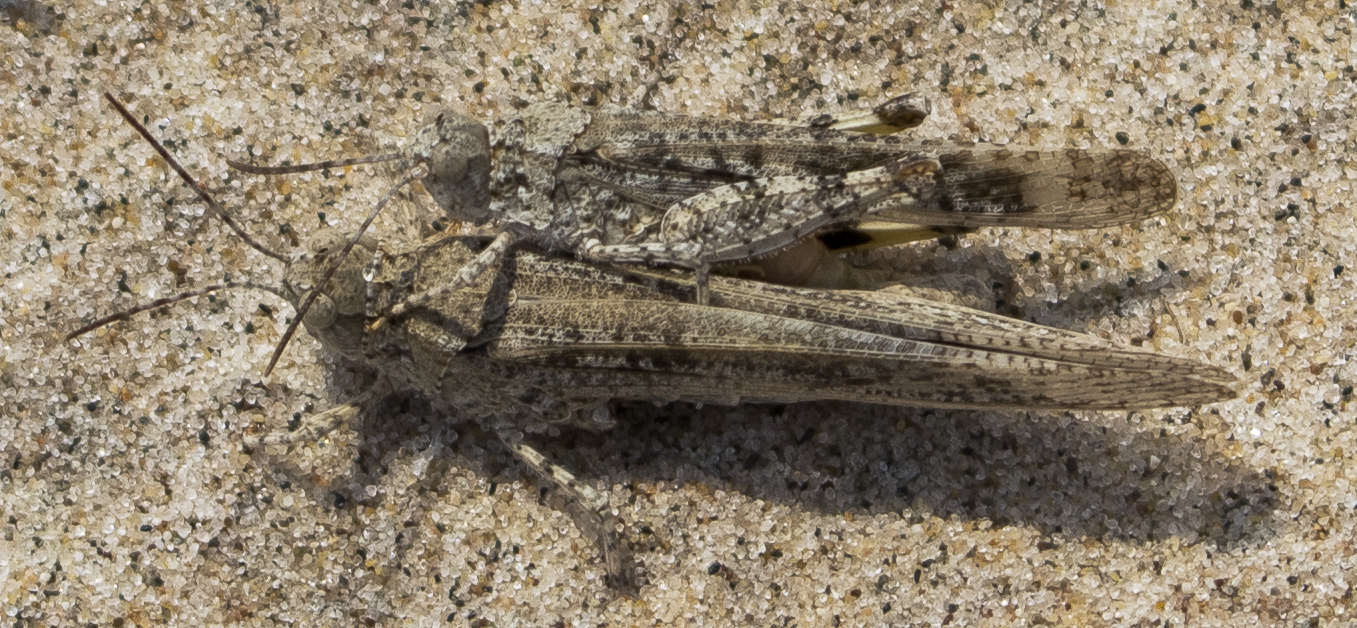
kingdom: Animalia
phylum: Arthropoda
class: Insecta
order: Orthoptera
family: Acrididae
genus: Trimerotropis
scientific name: Trimerotropis maritima
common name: Seaside locust
